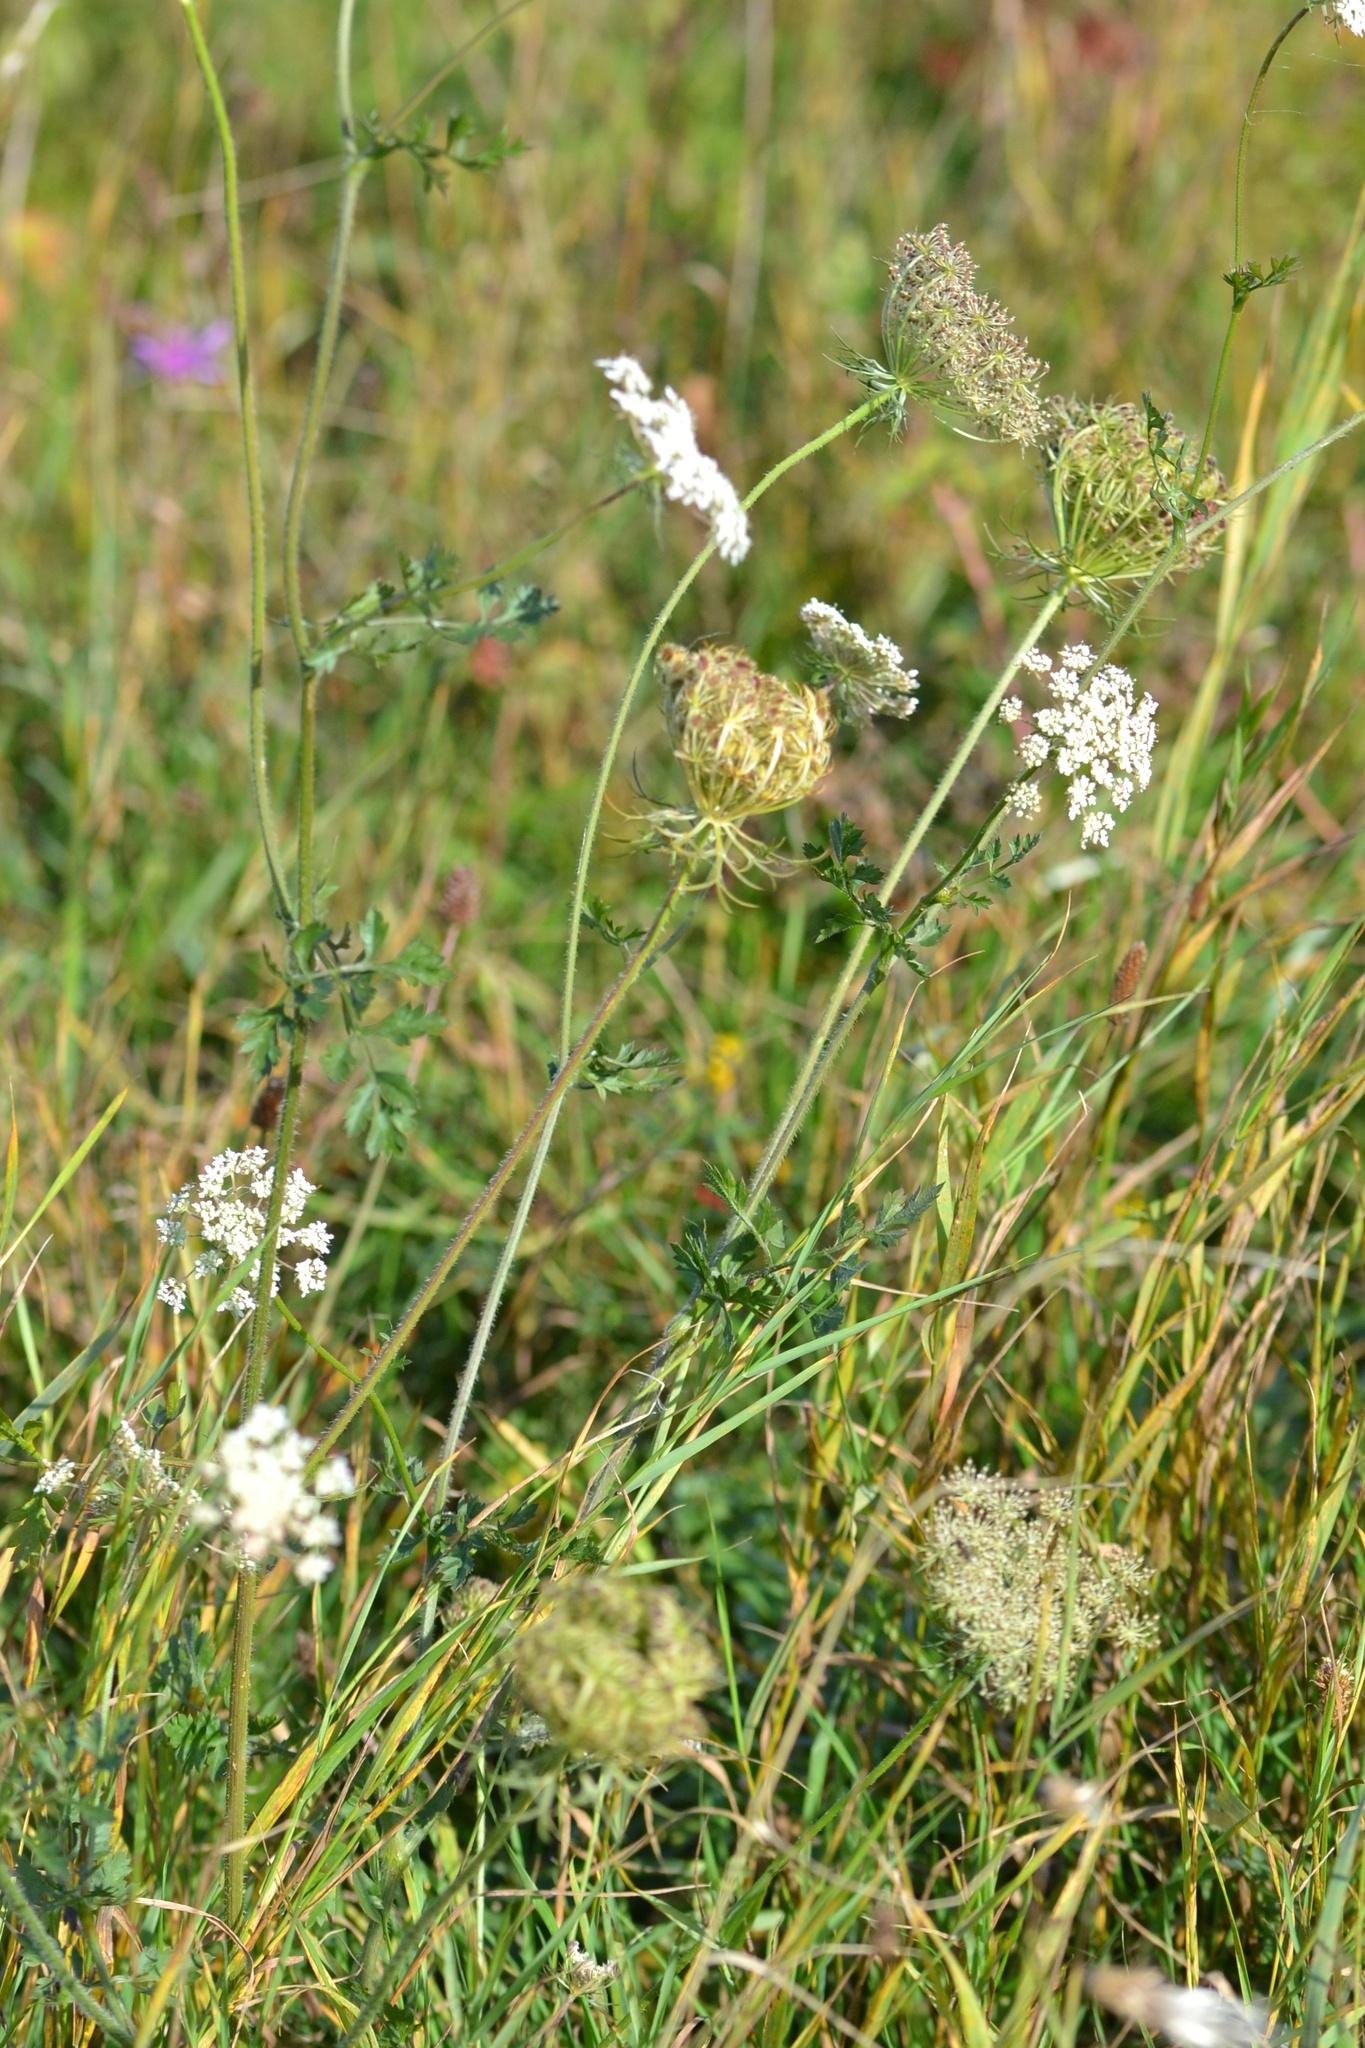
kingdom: Plantae
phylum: Tracheophyta
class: Magnoliopsida
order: Apiales
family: Apiaceae
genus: Daucus
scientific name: Daucus carota
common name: Wild carrot
